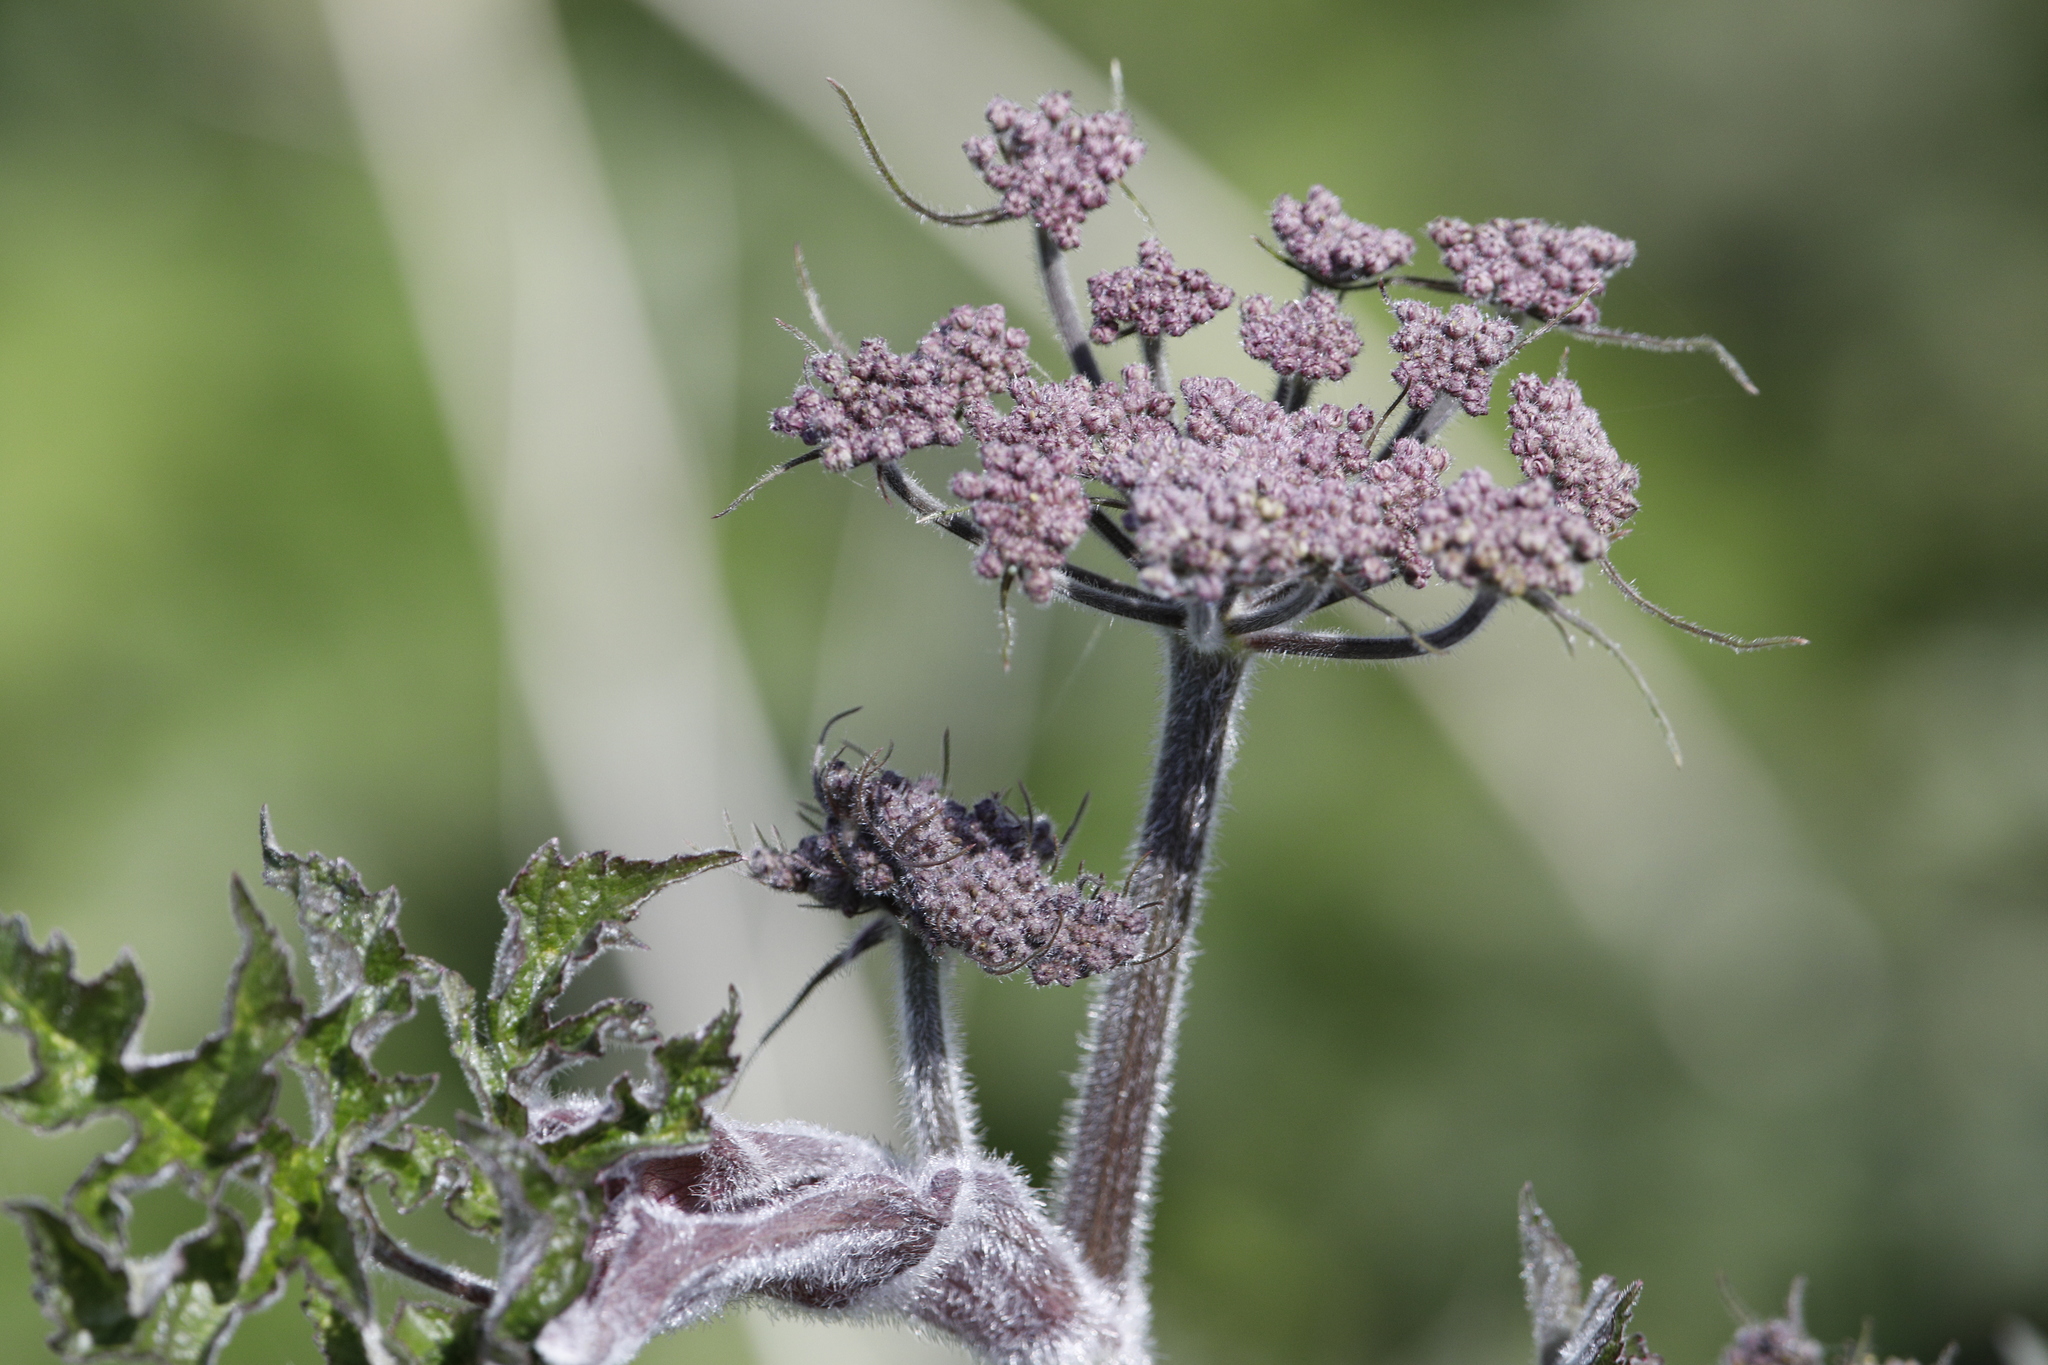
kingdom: Plantae
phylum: Tracheophyta
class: Magnoliopsida
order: Apiales
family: Apiaceae
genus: Heracleum
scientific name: Heracleum sphondylium
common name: Hogweed
